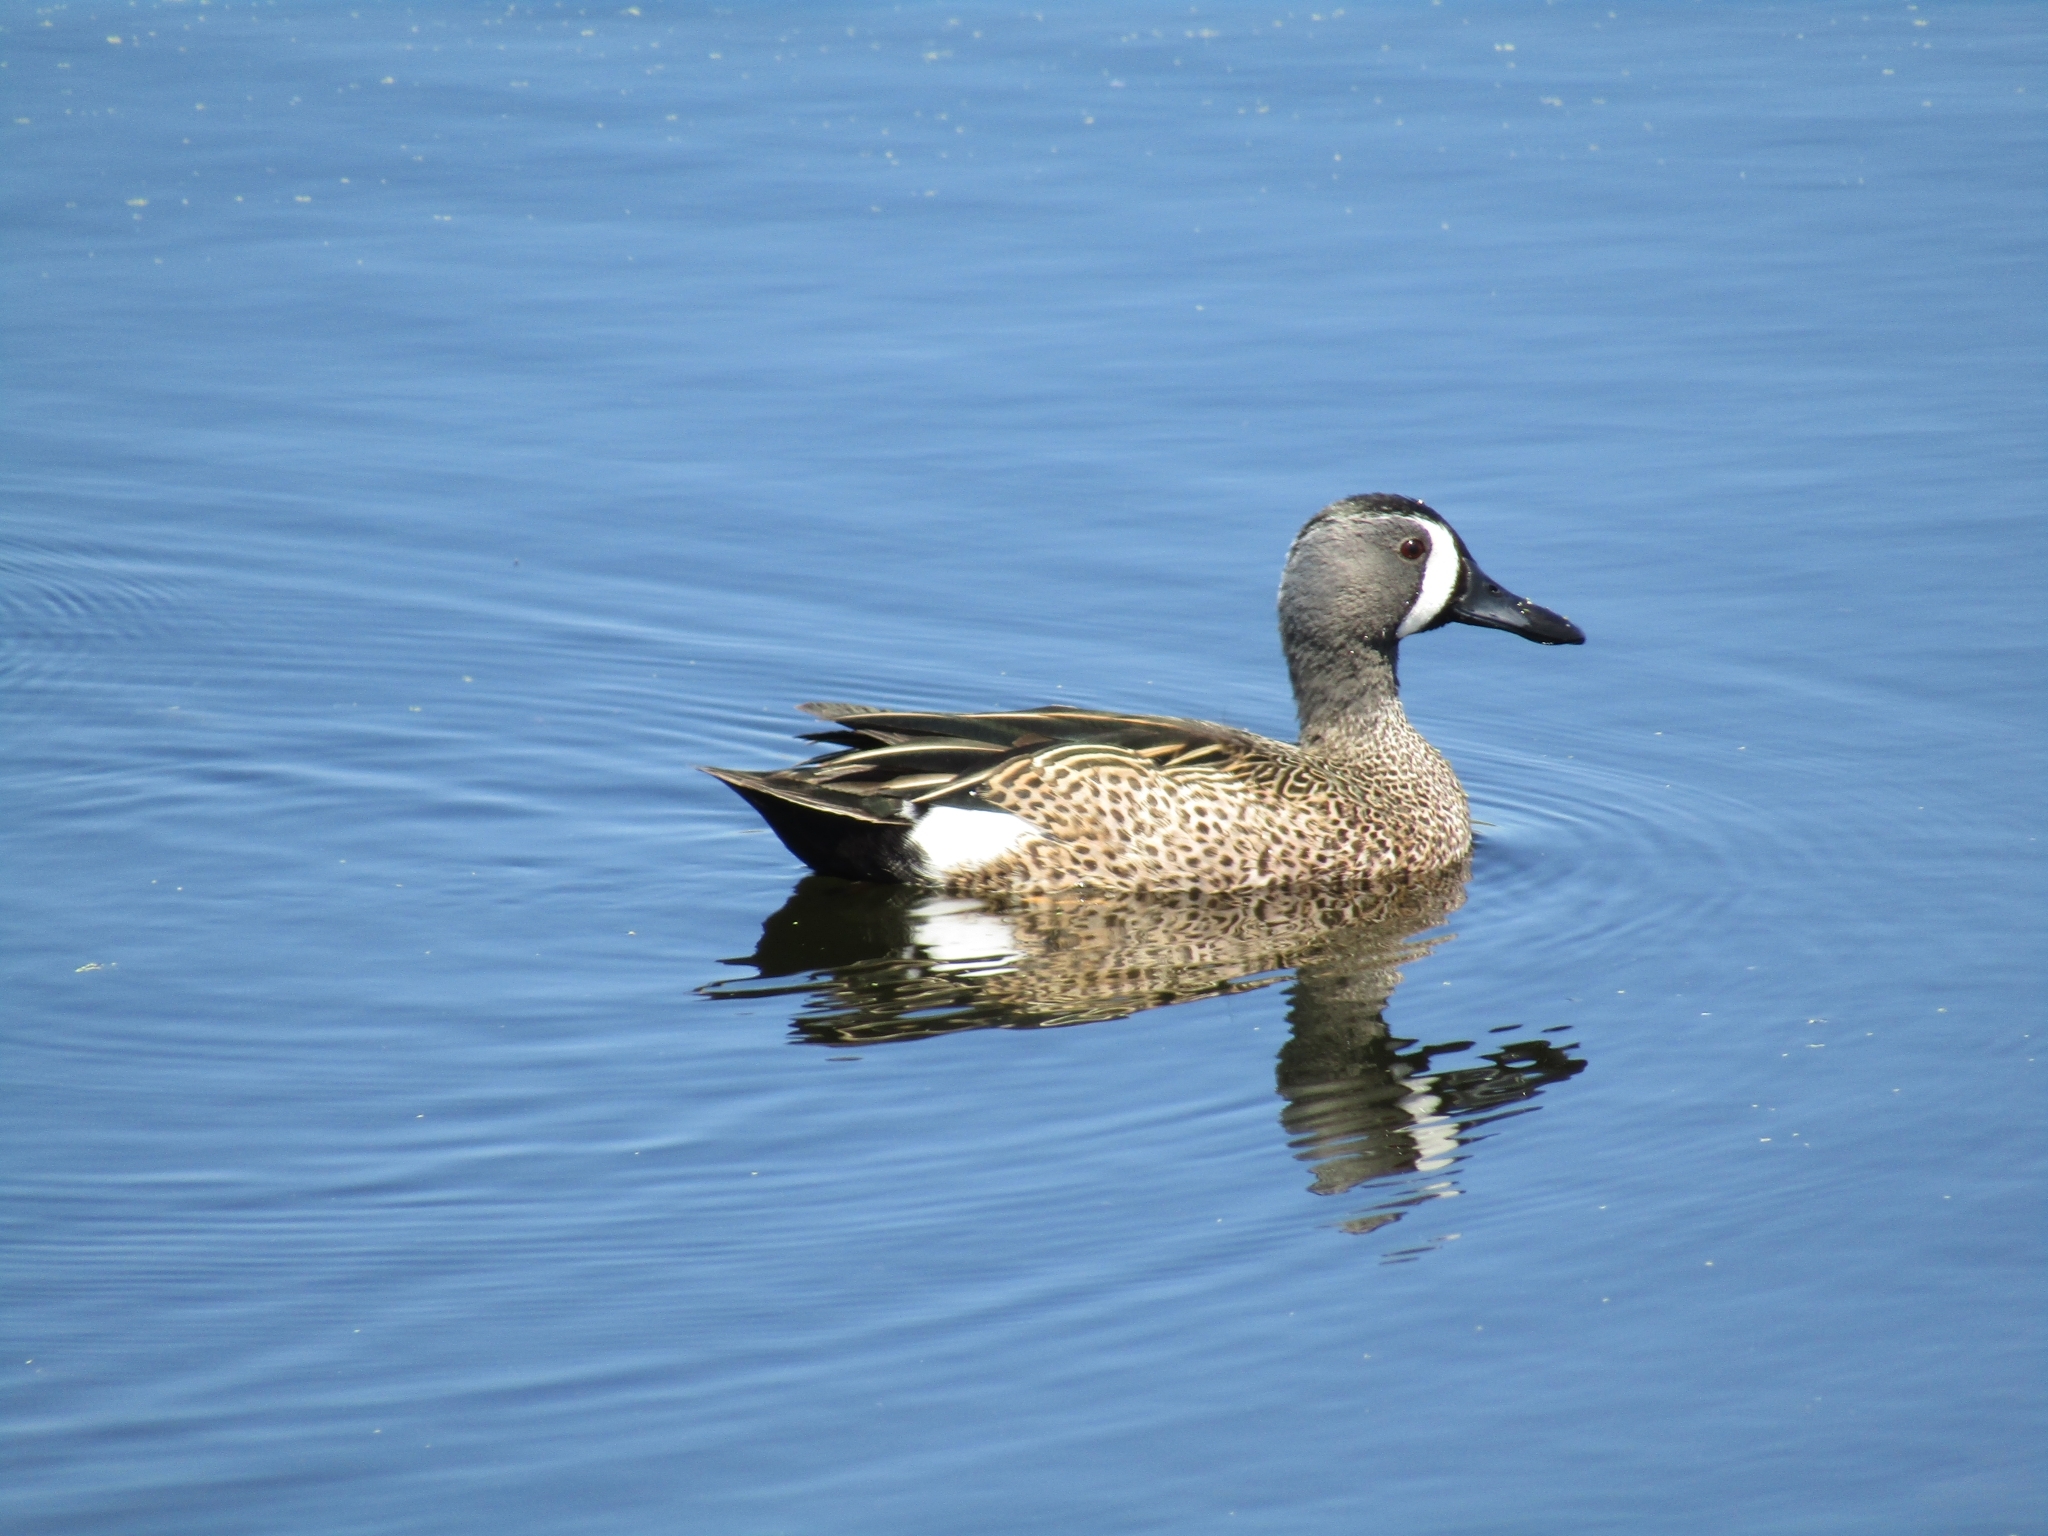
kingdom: Animalia
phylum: Chordata
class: Aves
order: Anseriformes
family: Anatidae
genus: Spatula
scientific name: Spatula discors
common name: Blue-winged teal
